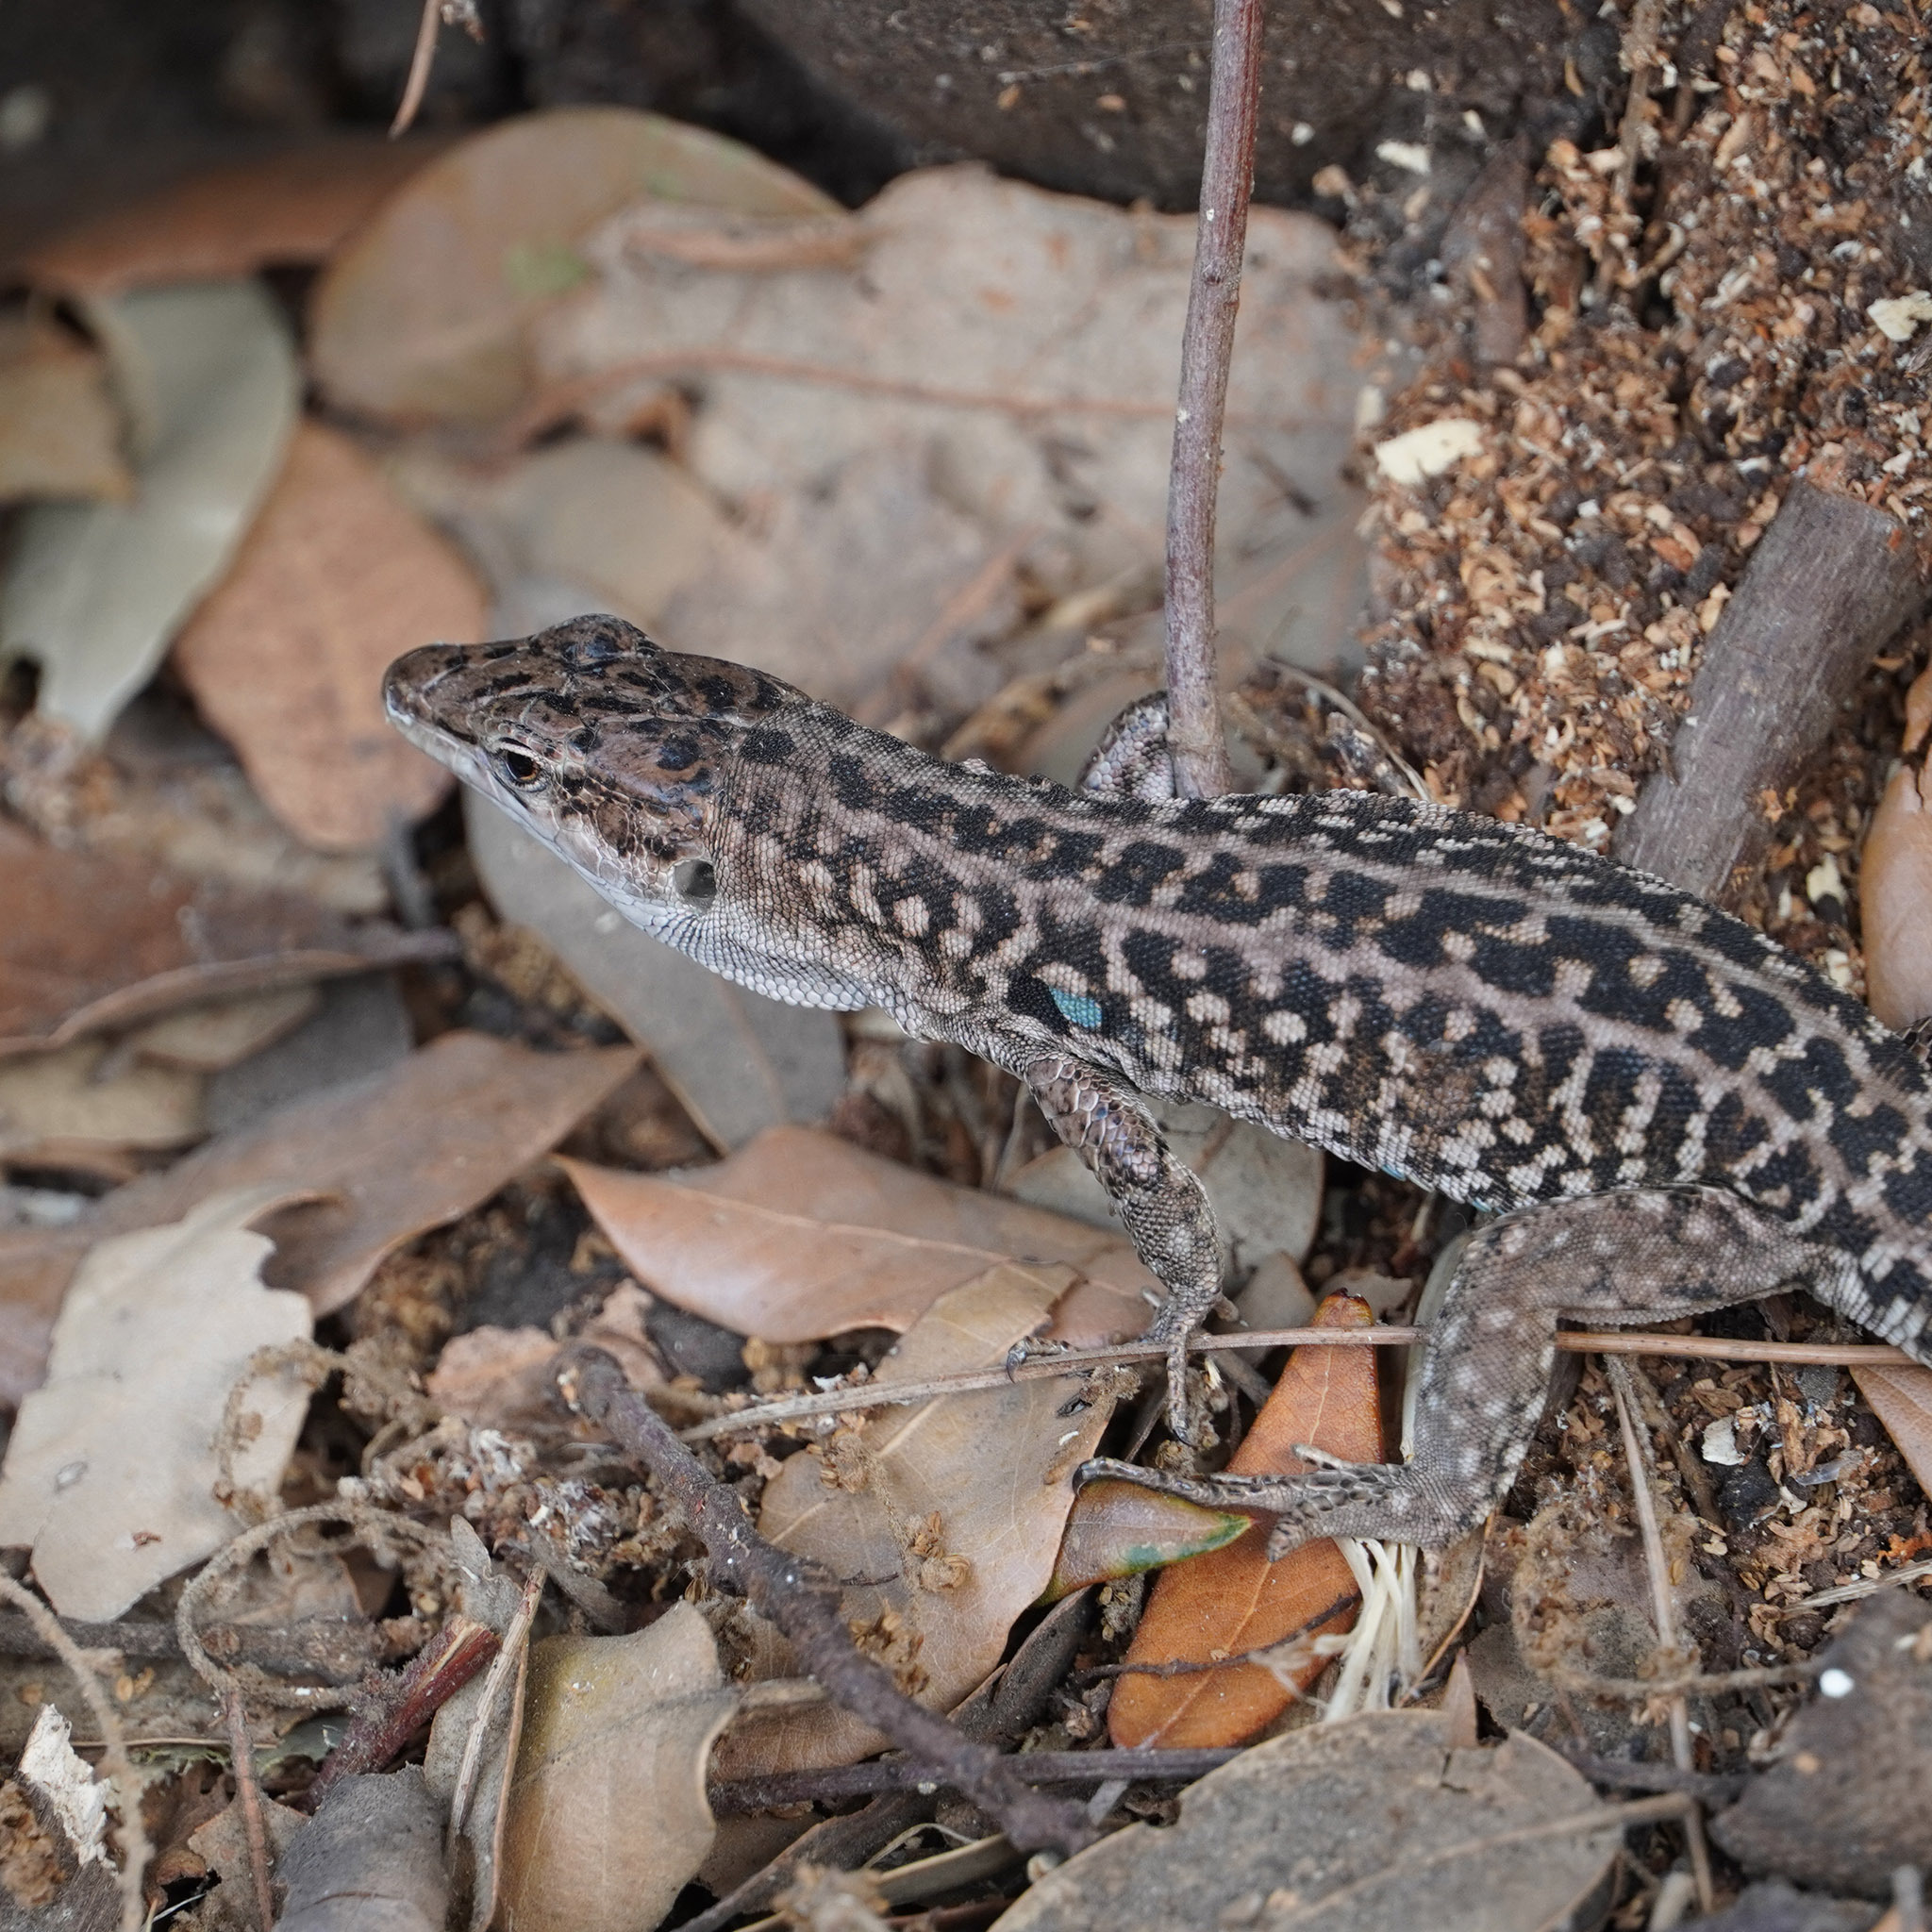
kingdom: Animalia
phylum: Chordata
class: Squamata
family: Lacertidae
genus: Podarcis
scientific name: Podarcis siculus
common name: Italian wall lizard
